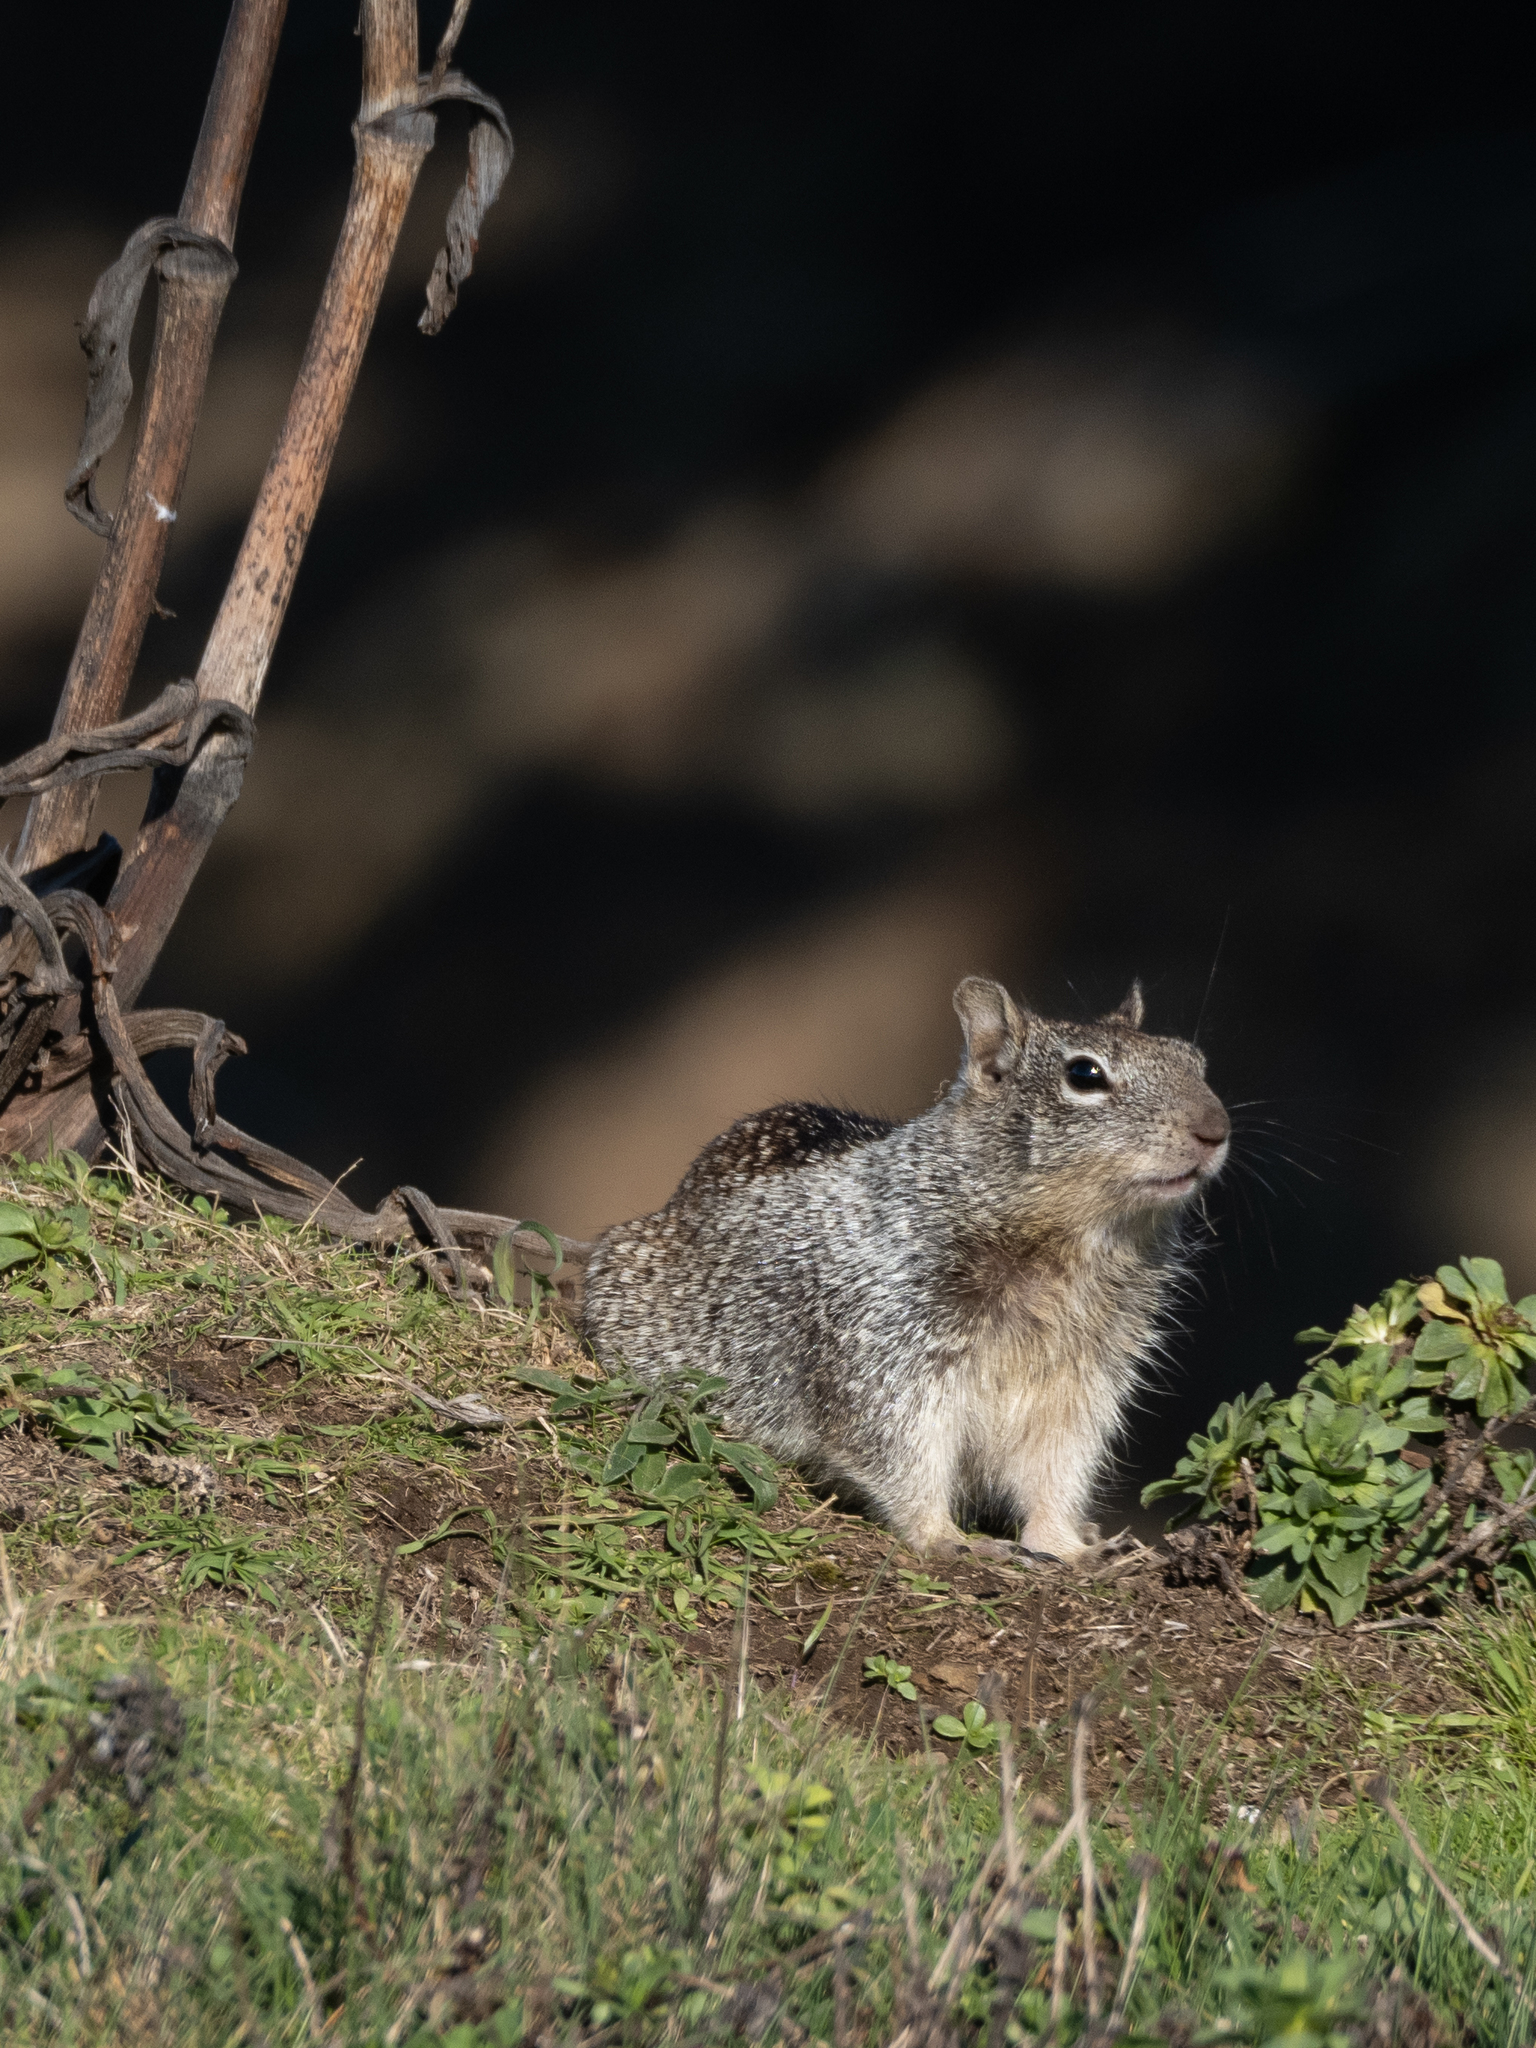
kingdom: Animalia
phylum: Chordata
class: Mammalia
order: Rodentia
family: Sciuridae
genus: Otospermophilus
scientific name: Otospermophilus beecheyi
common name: California ground squirrel
